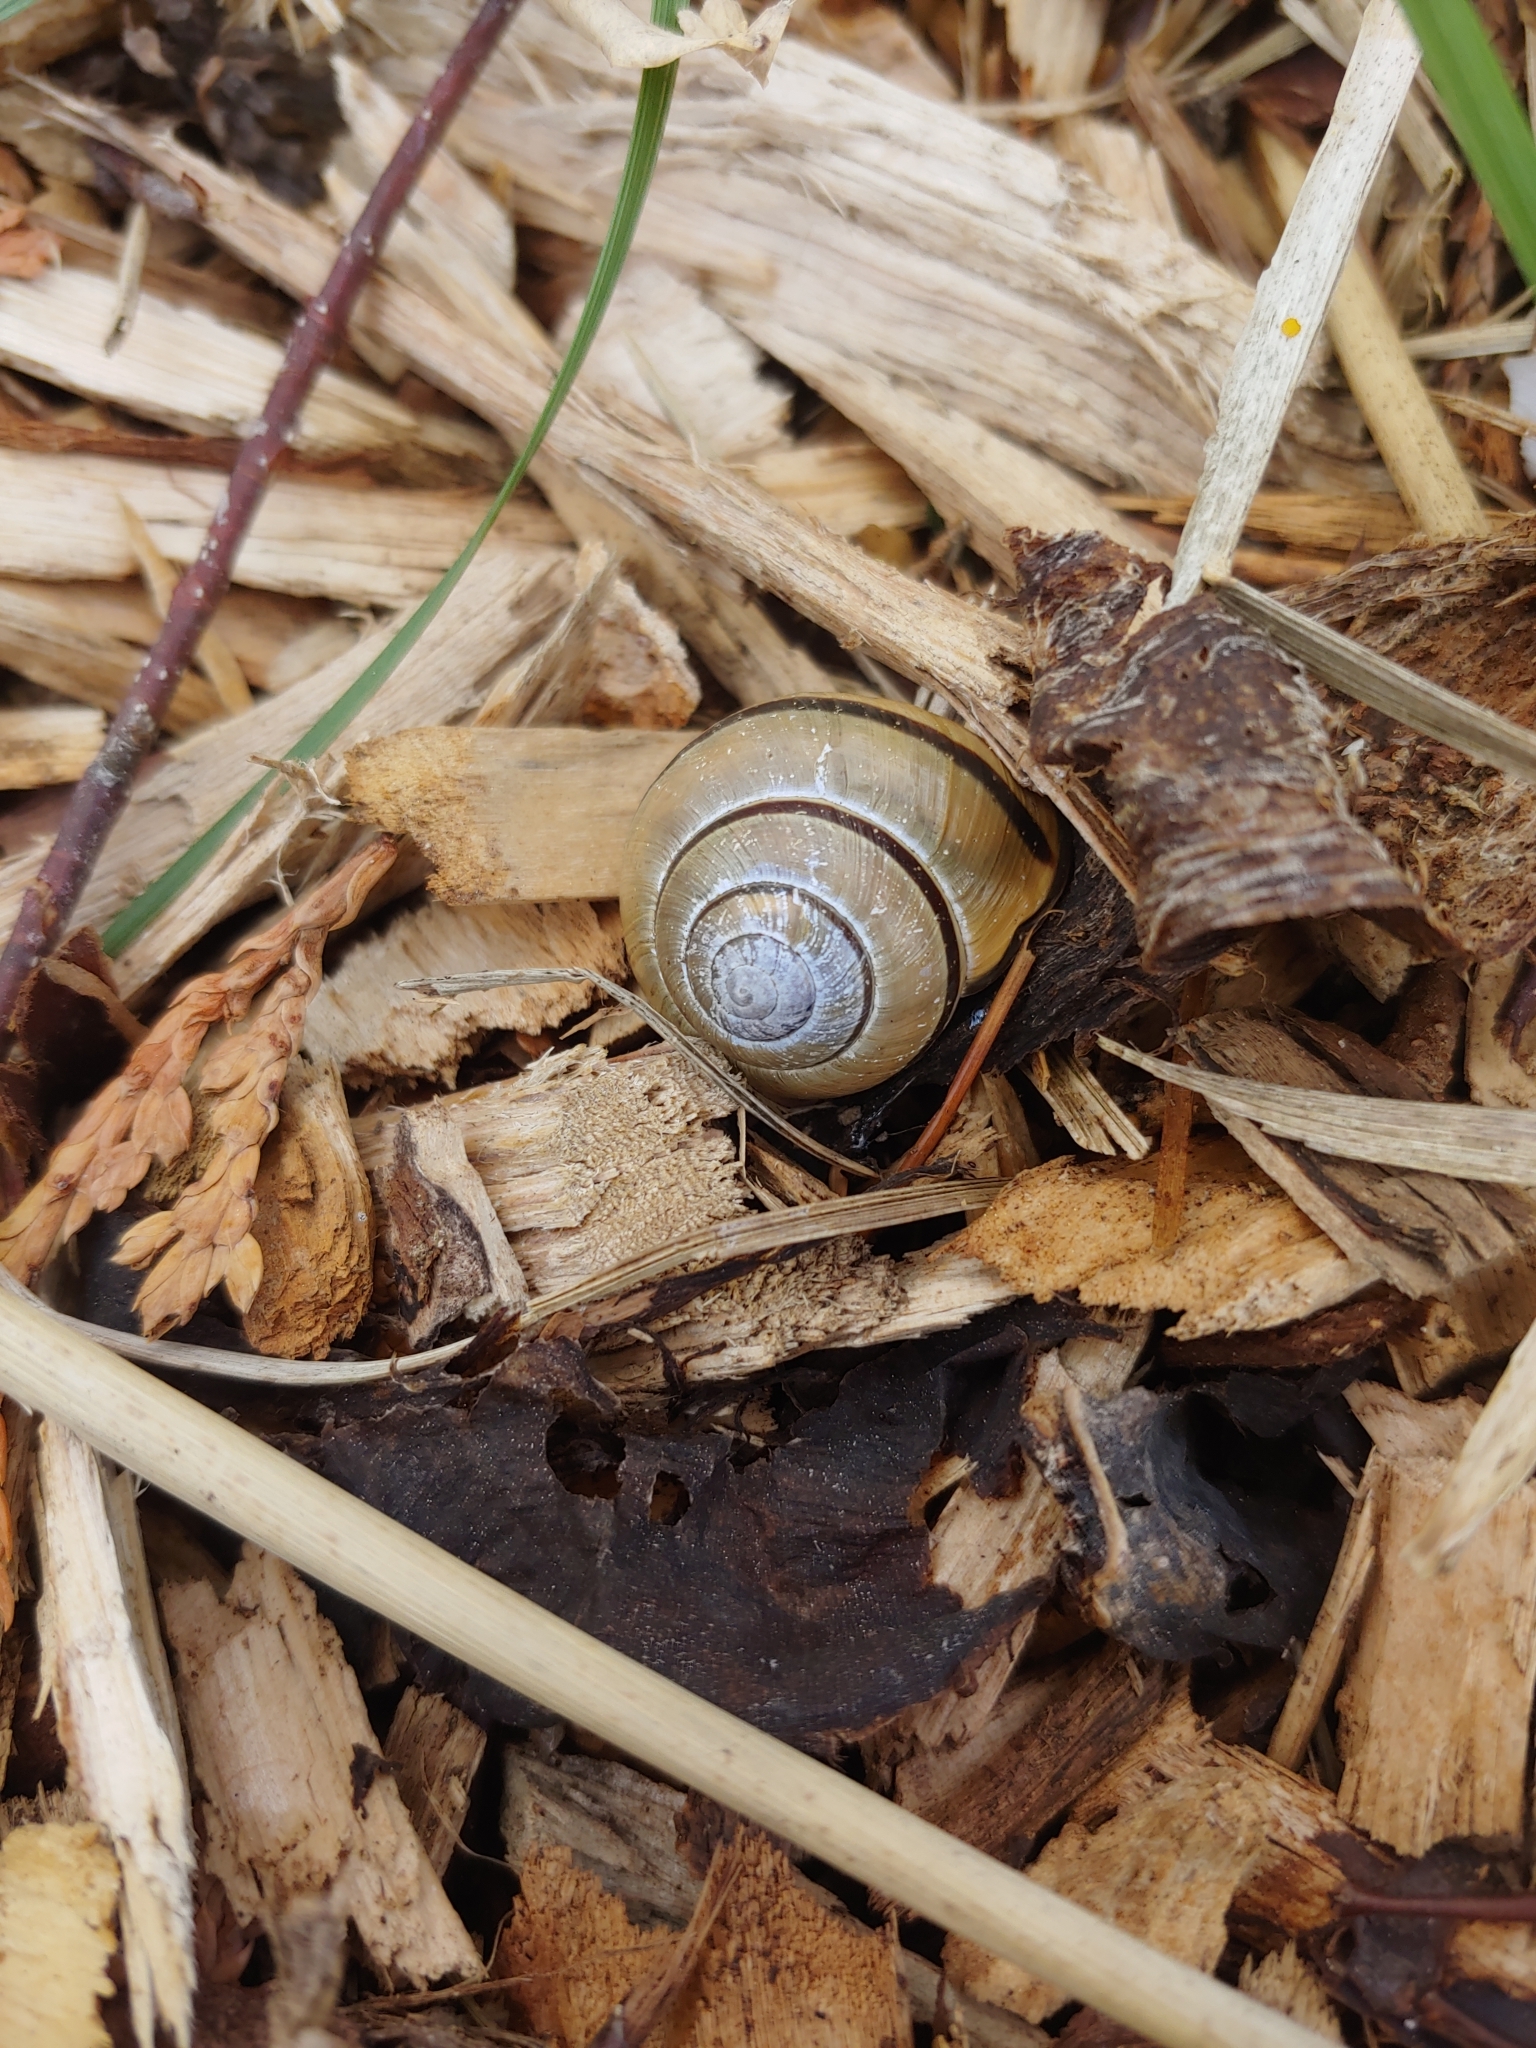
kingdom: Animalia
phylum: Mollusca
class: Gastropoda
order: Stylommatophora
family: Helicidae
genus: Cepaea
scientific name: Cepaea nemoralis
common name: Grovesnail
